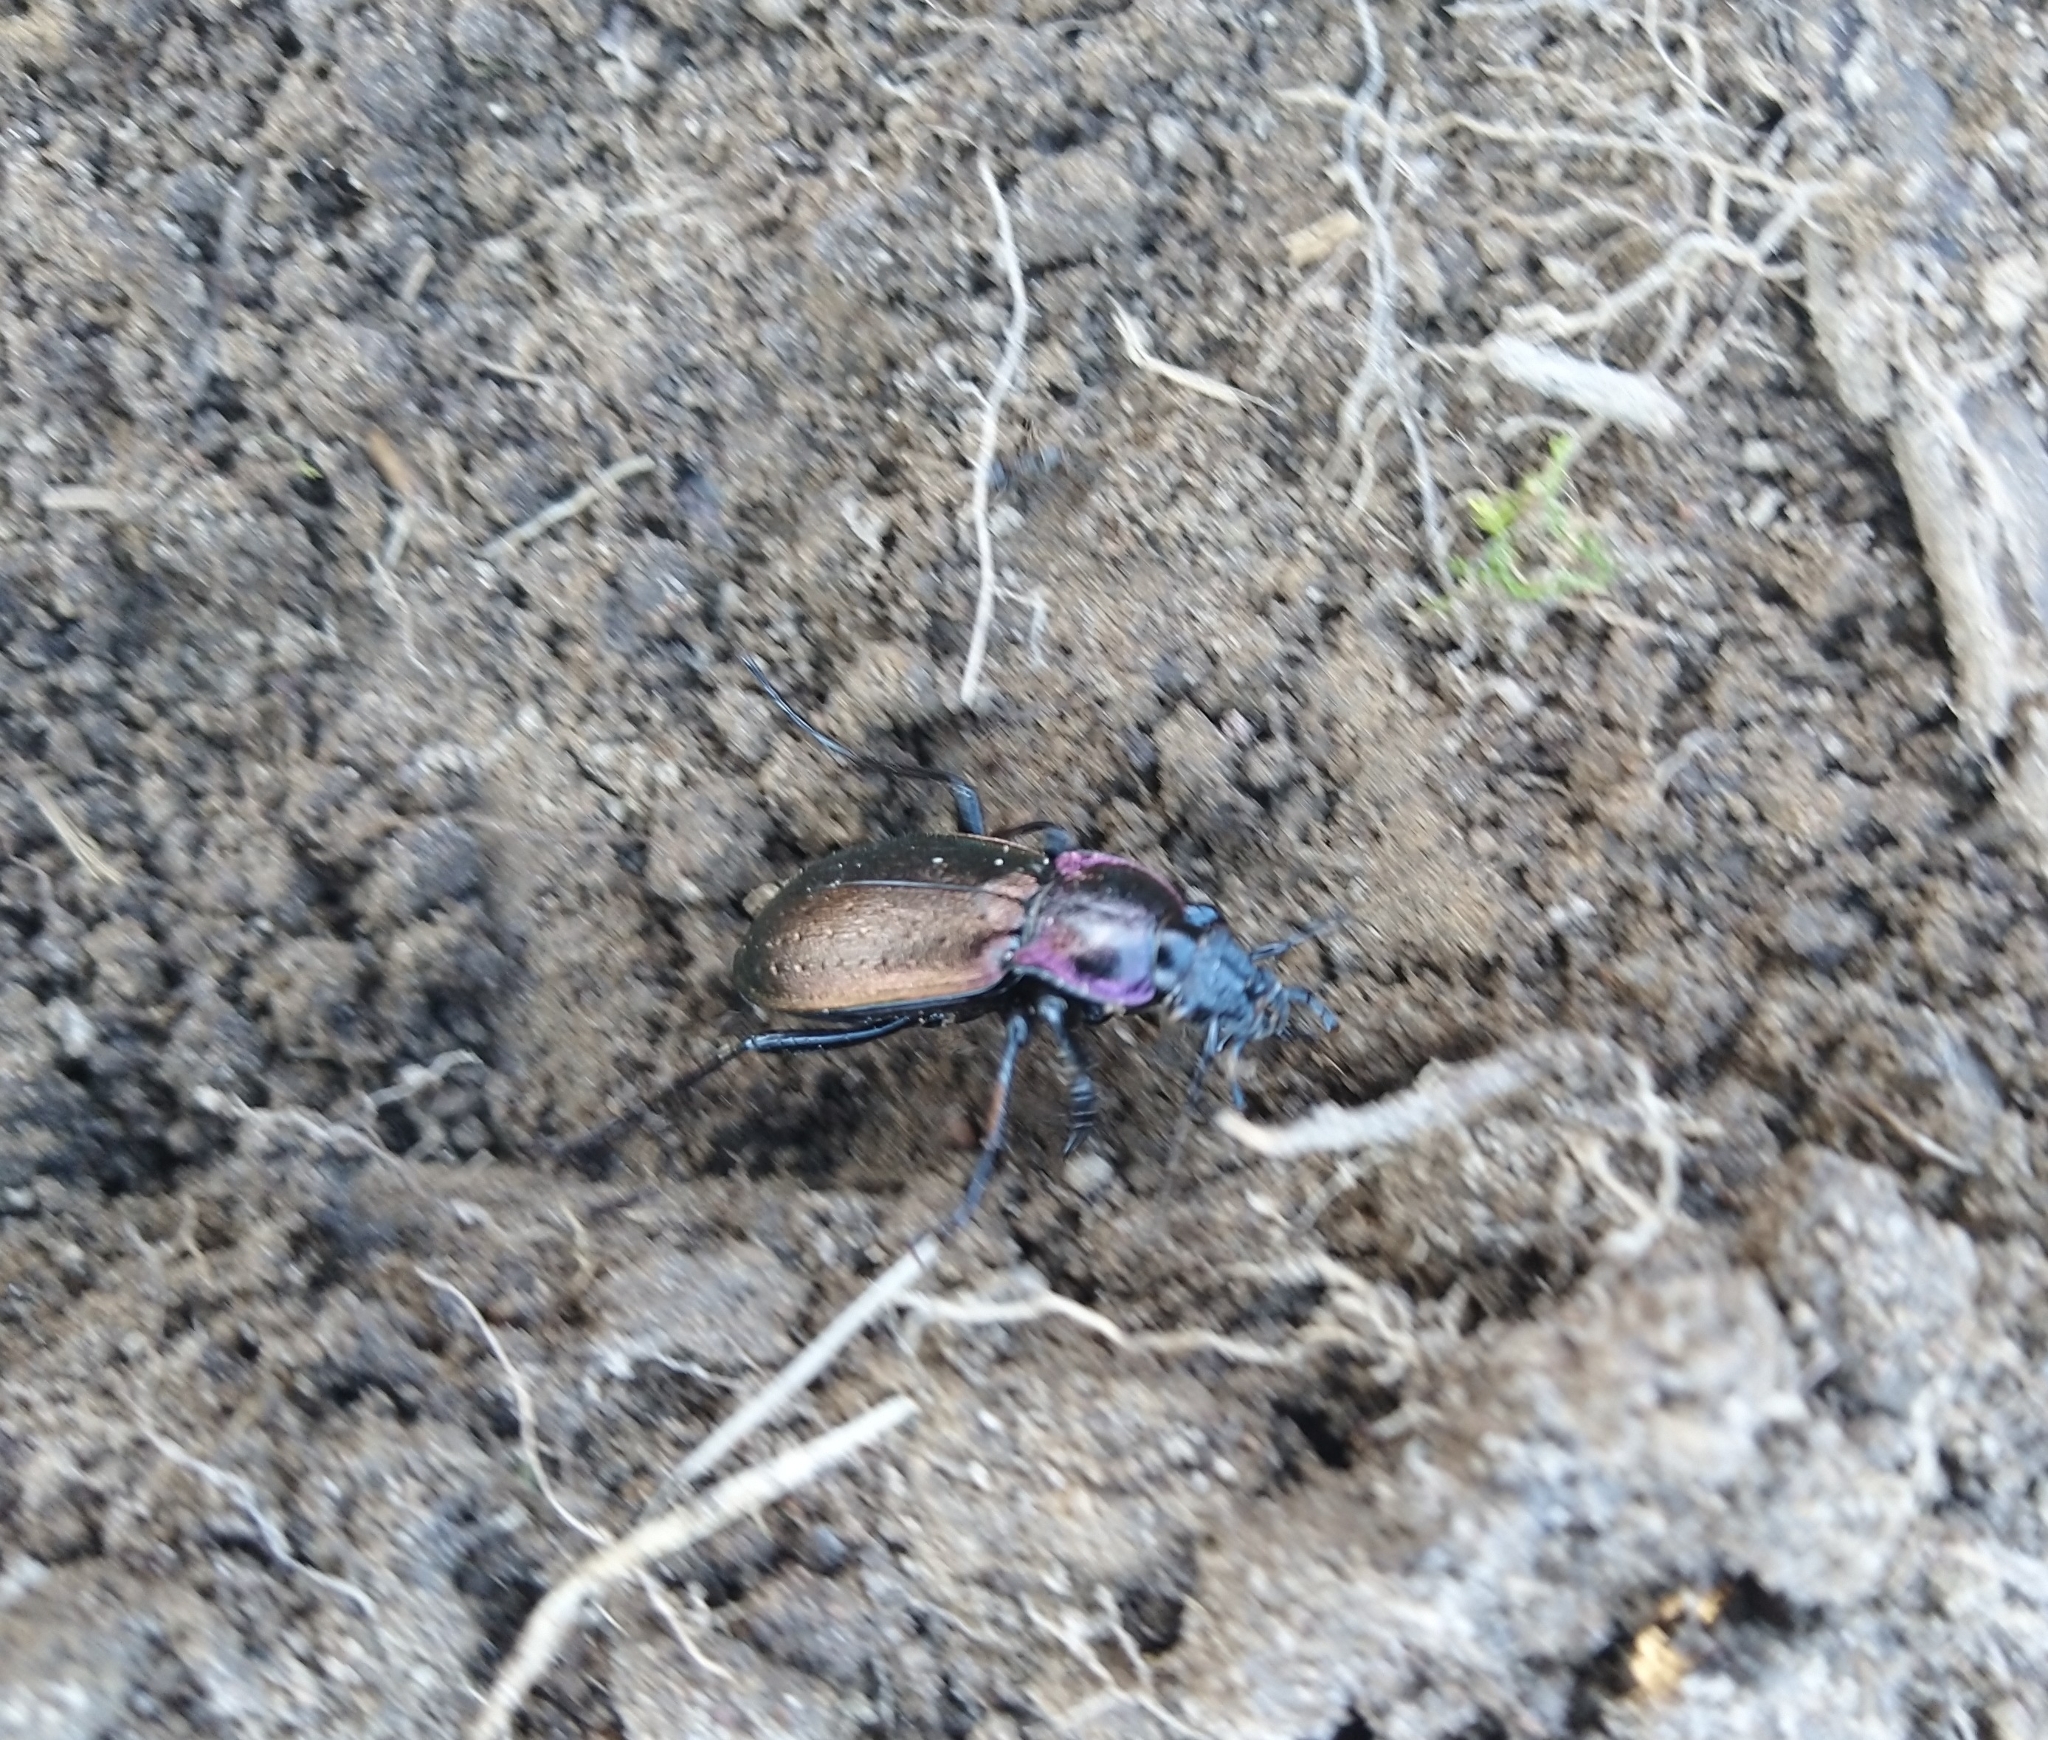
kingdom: Animalia
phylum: Arthropoda
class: Insecta
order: Coleoptera
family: Carabidae
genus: Carabus
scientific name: Carabus nemoralis
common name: European ground beetle
